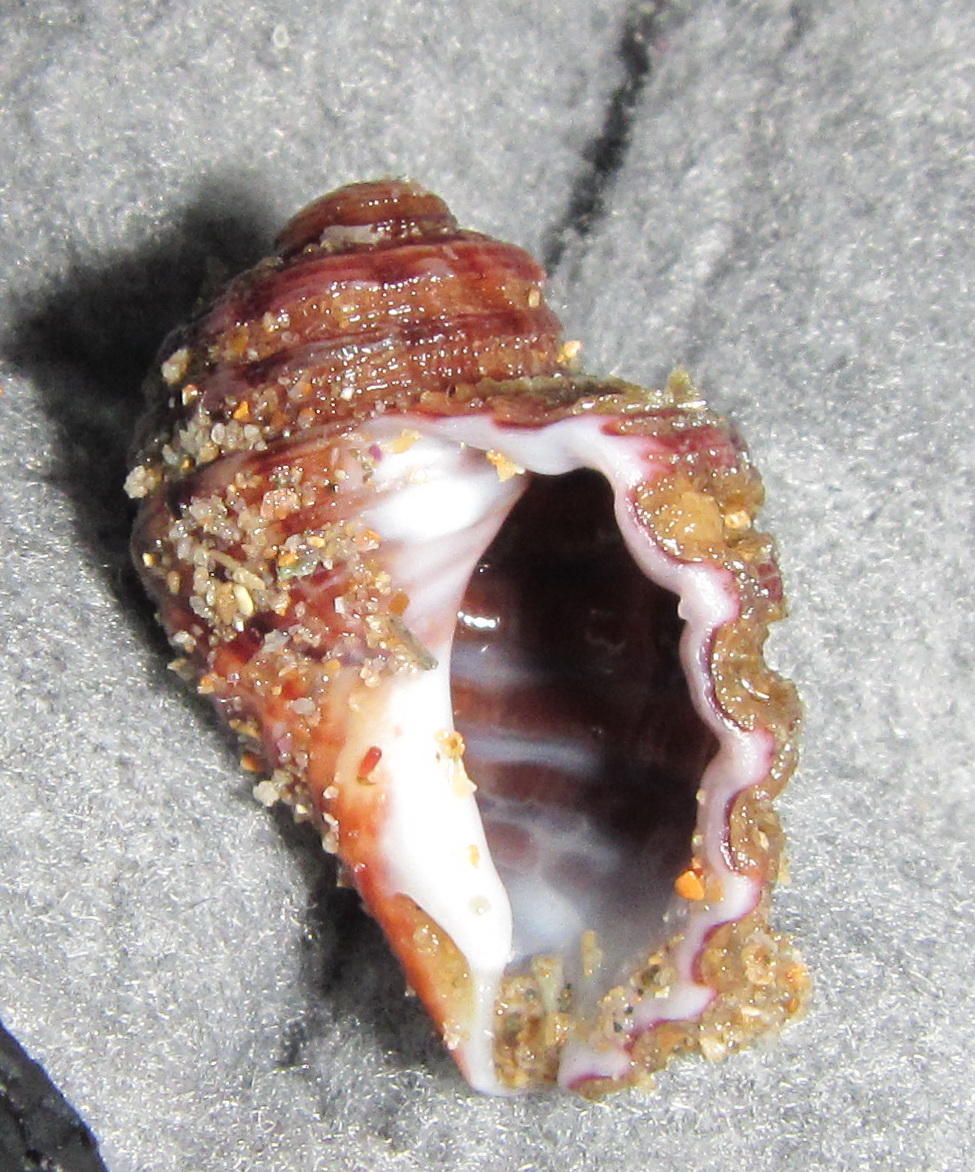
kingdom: Animalia
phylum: Mollusca
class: Gastropoda
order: Littorinimorpha
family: Cymatiidae
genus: Cabestana
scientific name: Cabestana africana
